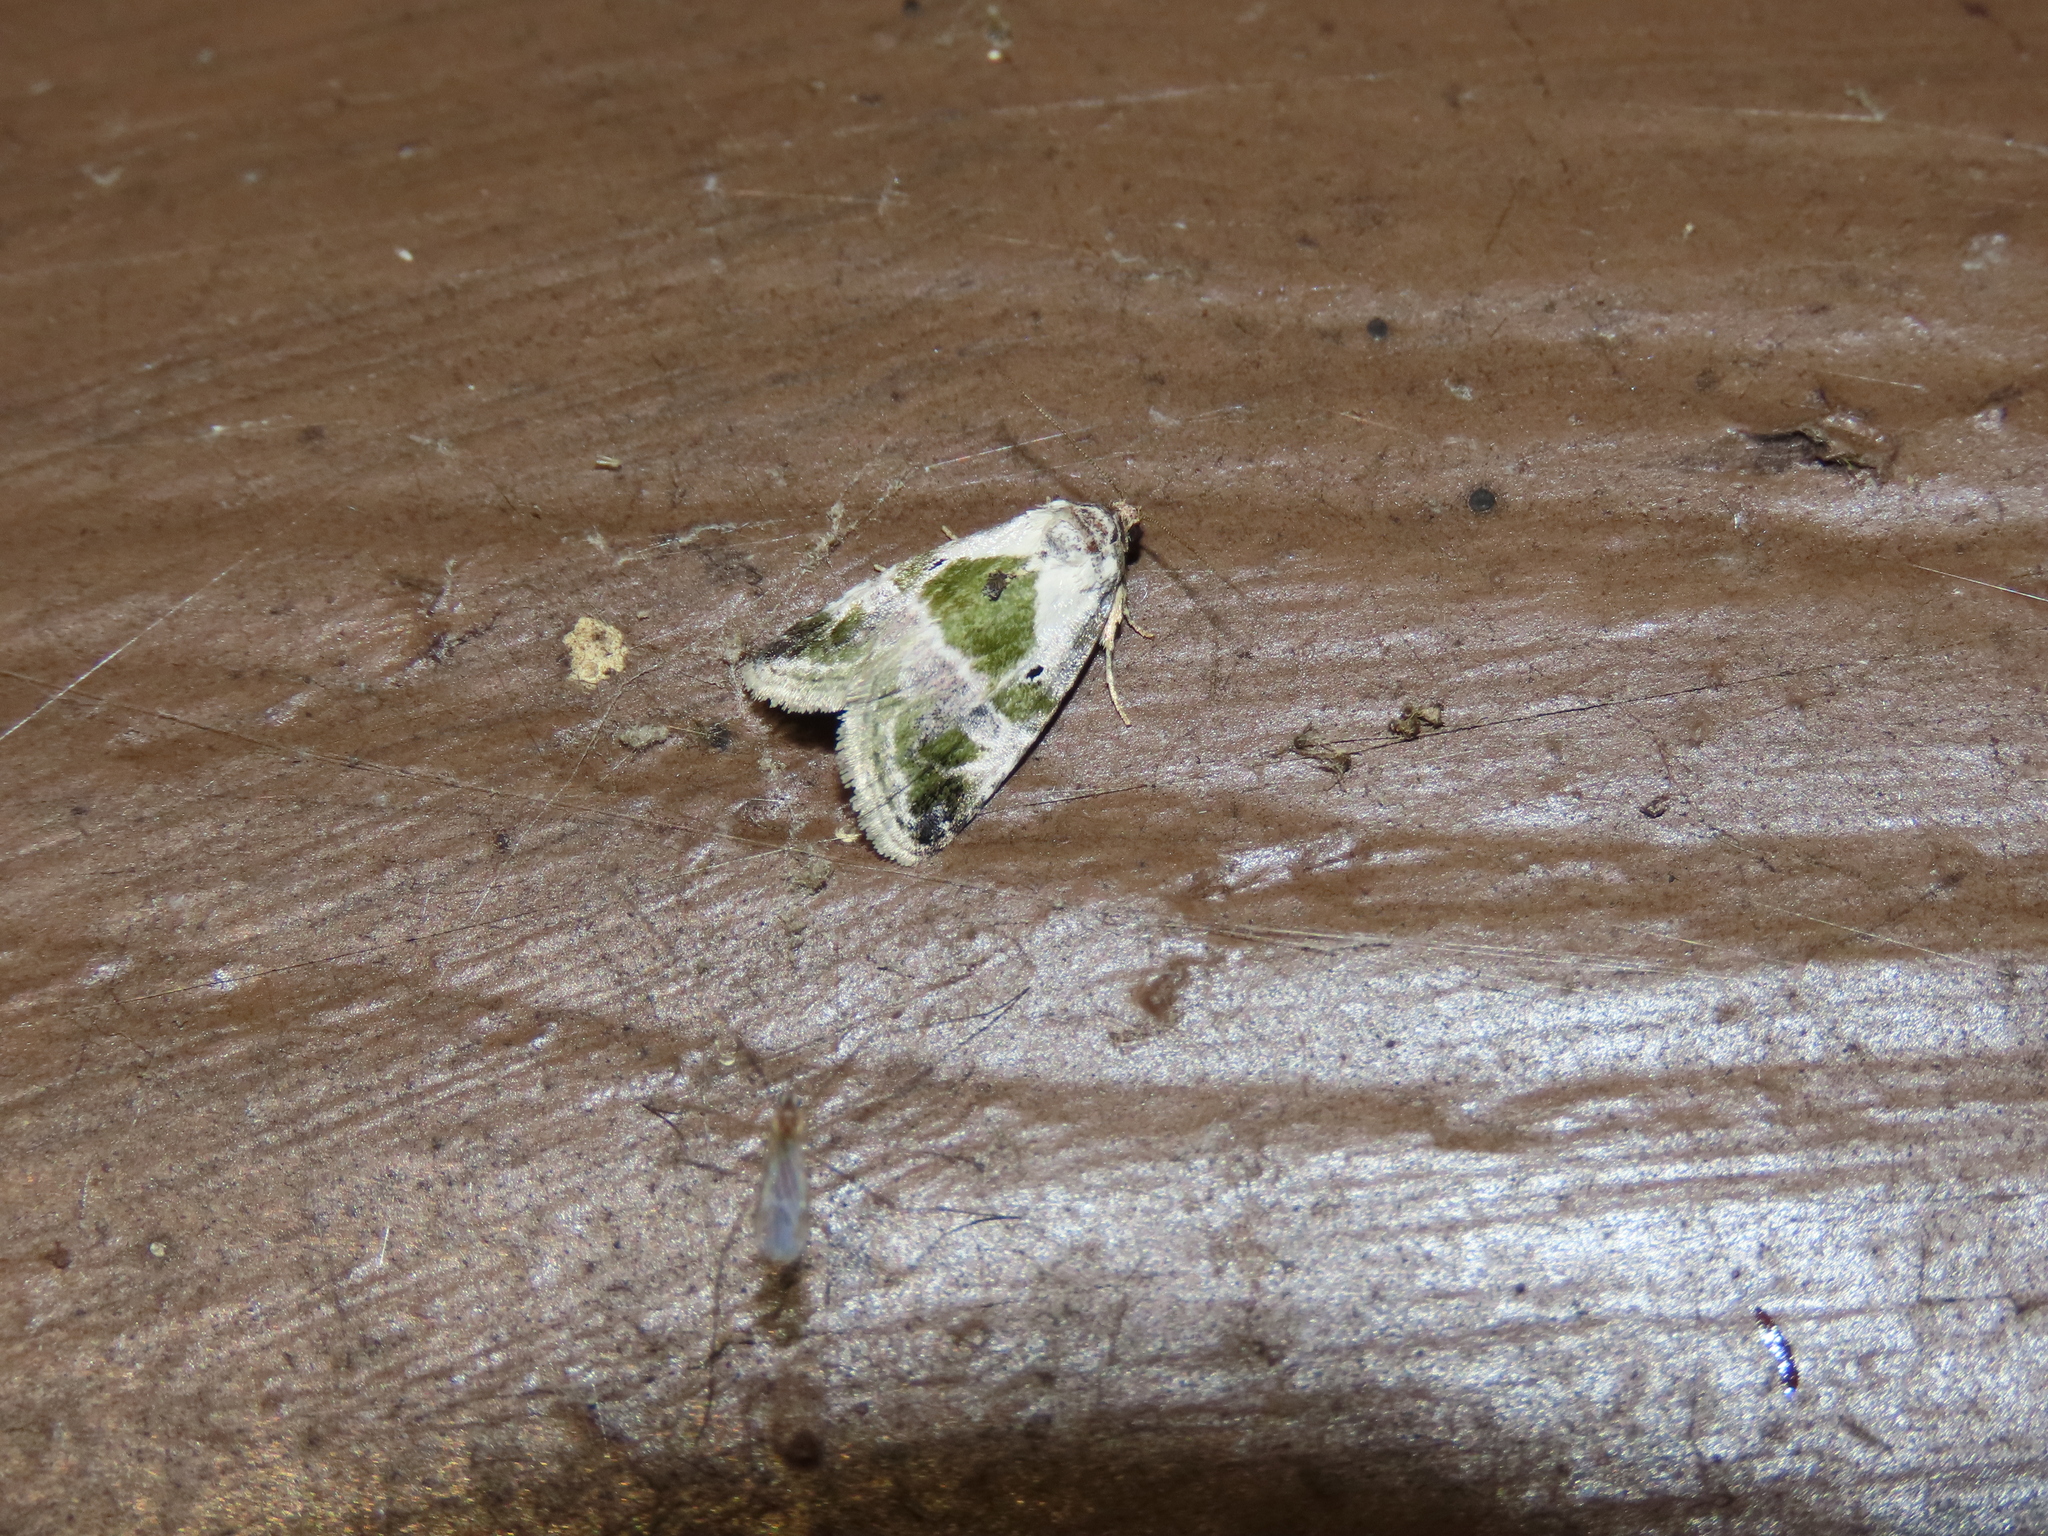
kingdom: Animalia
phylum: Arthropoda
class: Insecta
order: Lepidoptera
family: Noctuidae
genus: Maliattha
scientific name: Maliattha synochitis
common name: Black-dotted glyph
